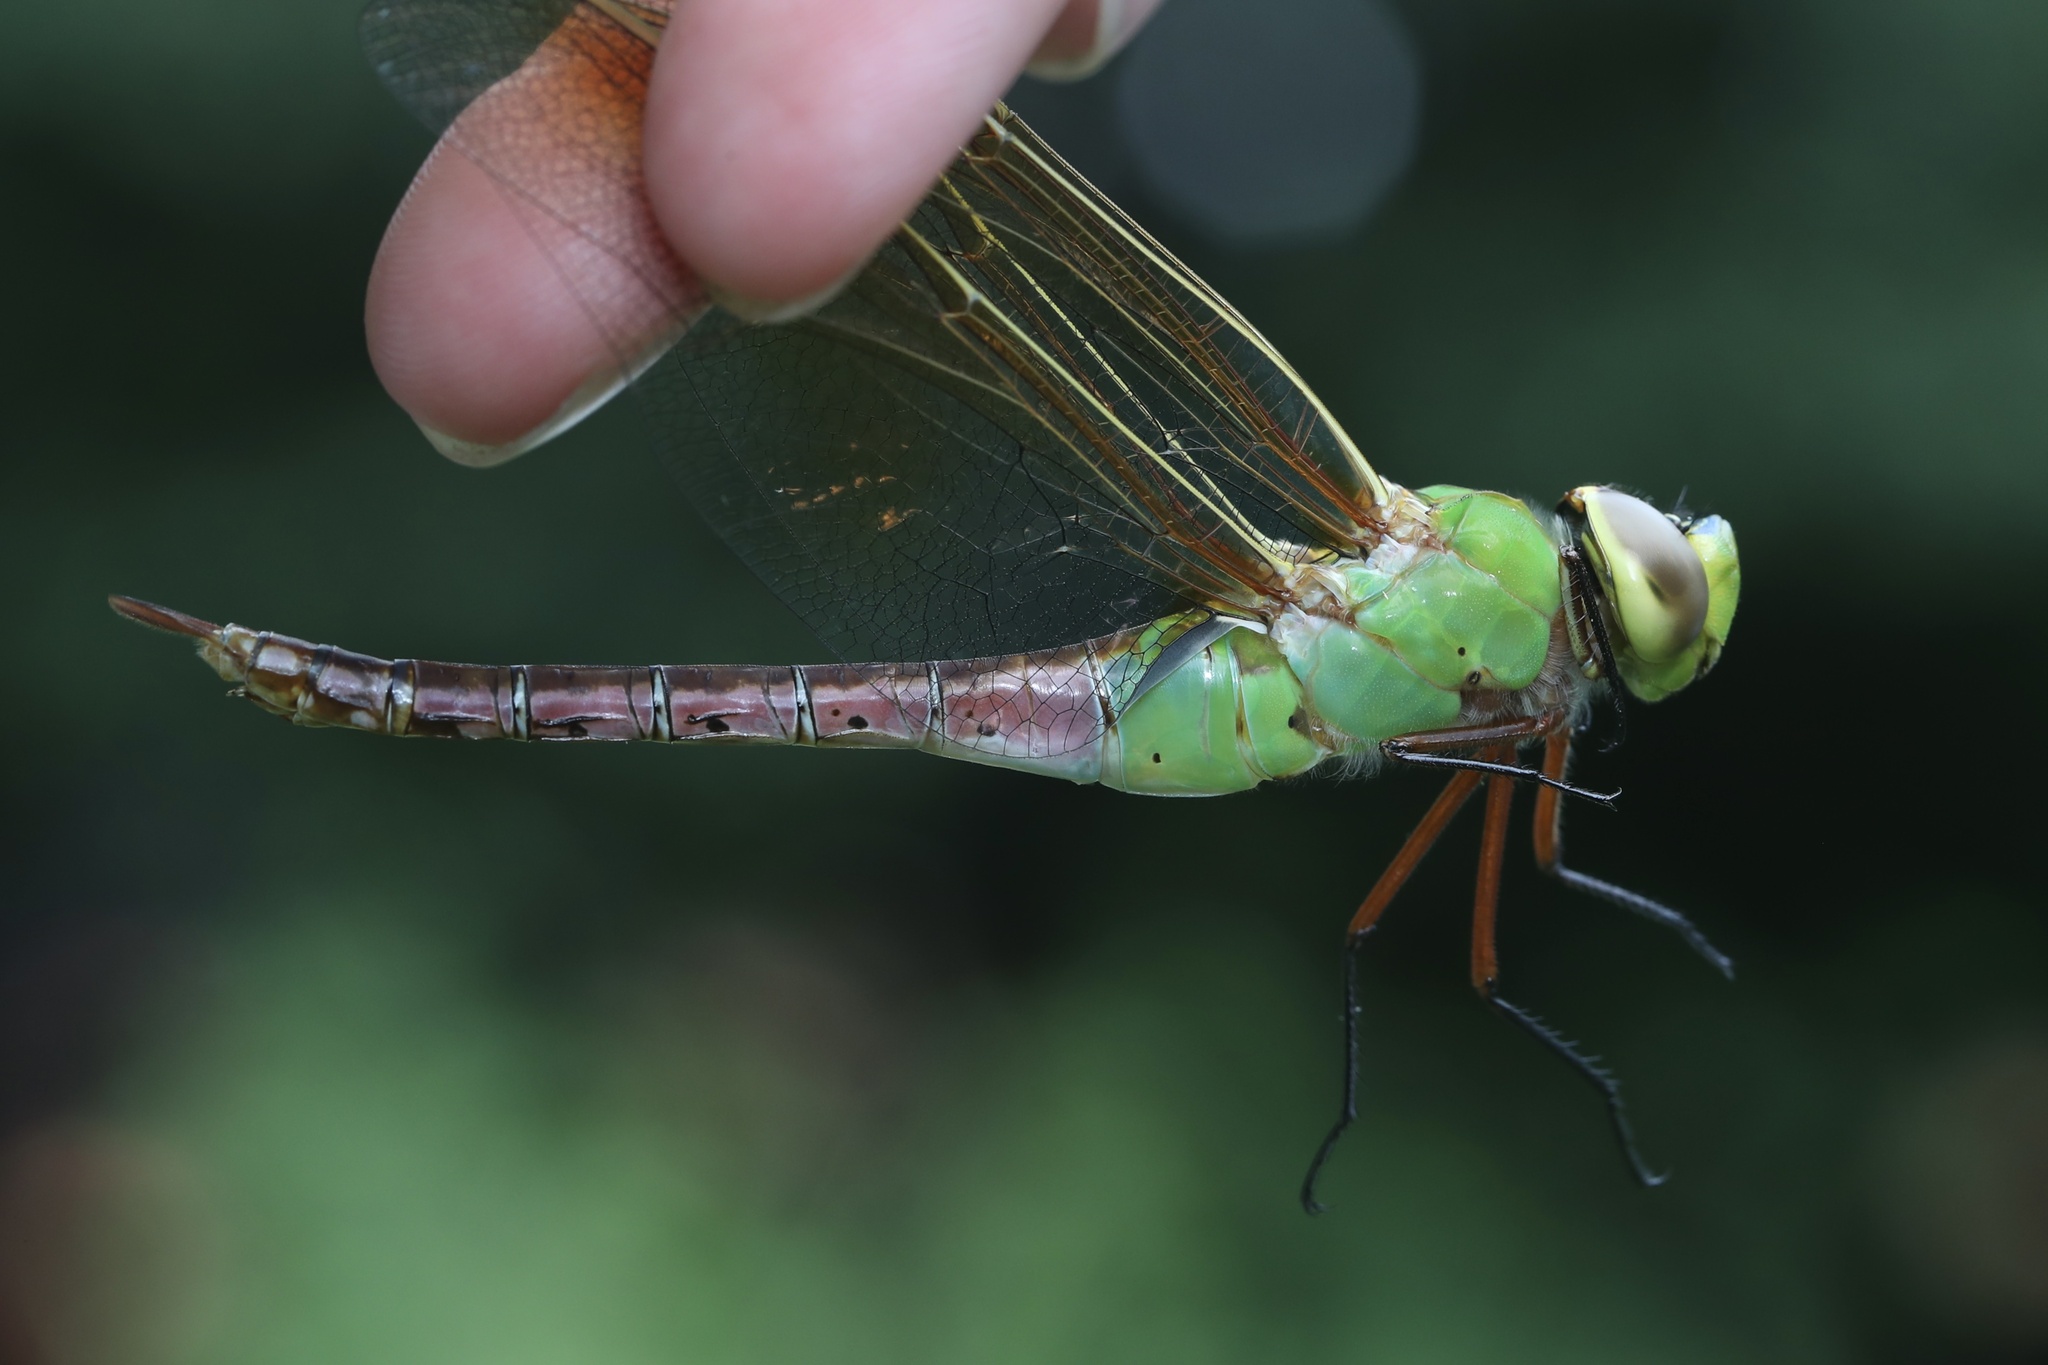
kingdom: Animalia
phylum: Arthropoda
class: Insecta
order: Odonata
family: Aeshnidae
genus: Anax
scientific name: Anax junius
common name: Common green darner
